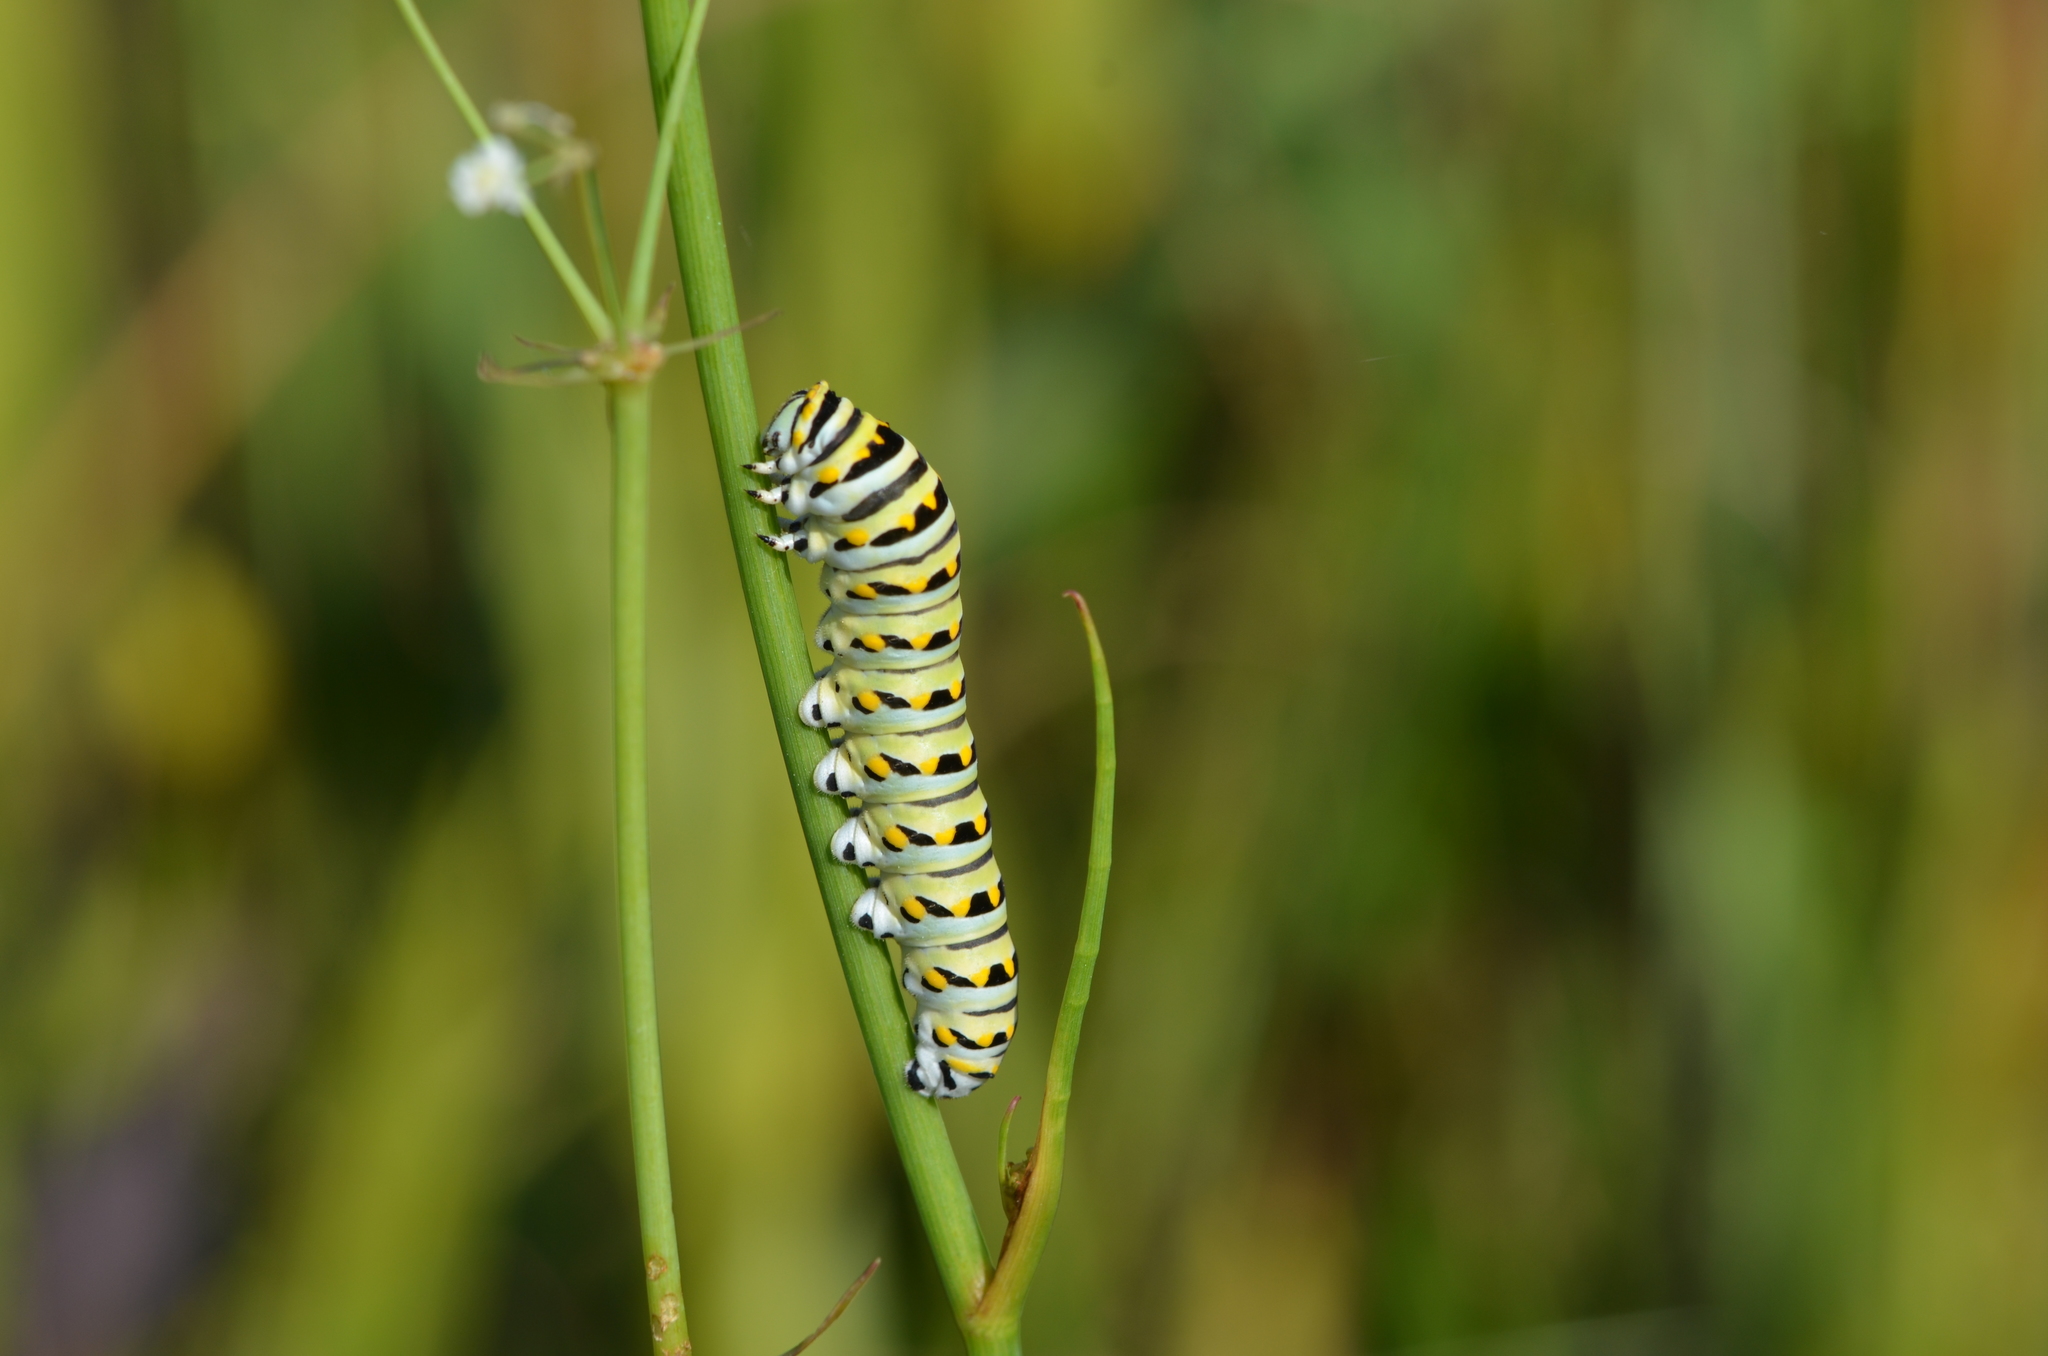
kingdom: Animalia
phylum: Arthropoda
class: Insecta
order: Lepidoptera
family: Papilionidae
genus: Papilio
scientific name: Papilio polyxenes
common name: Black swallowtail
